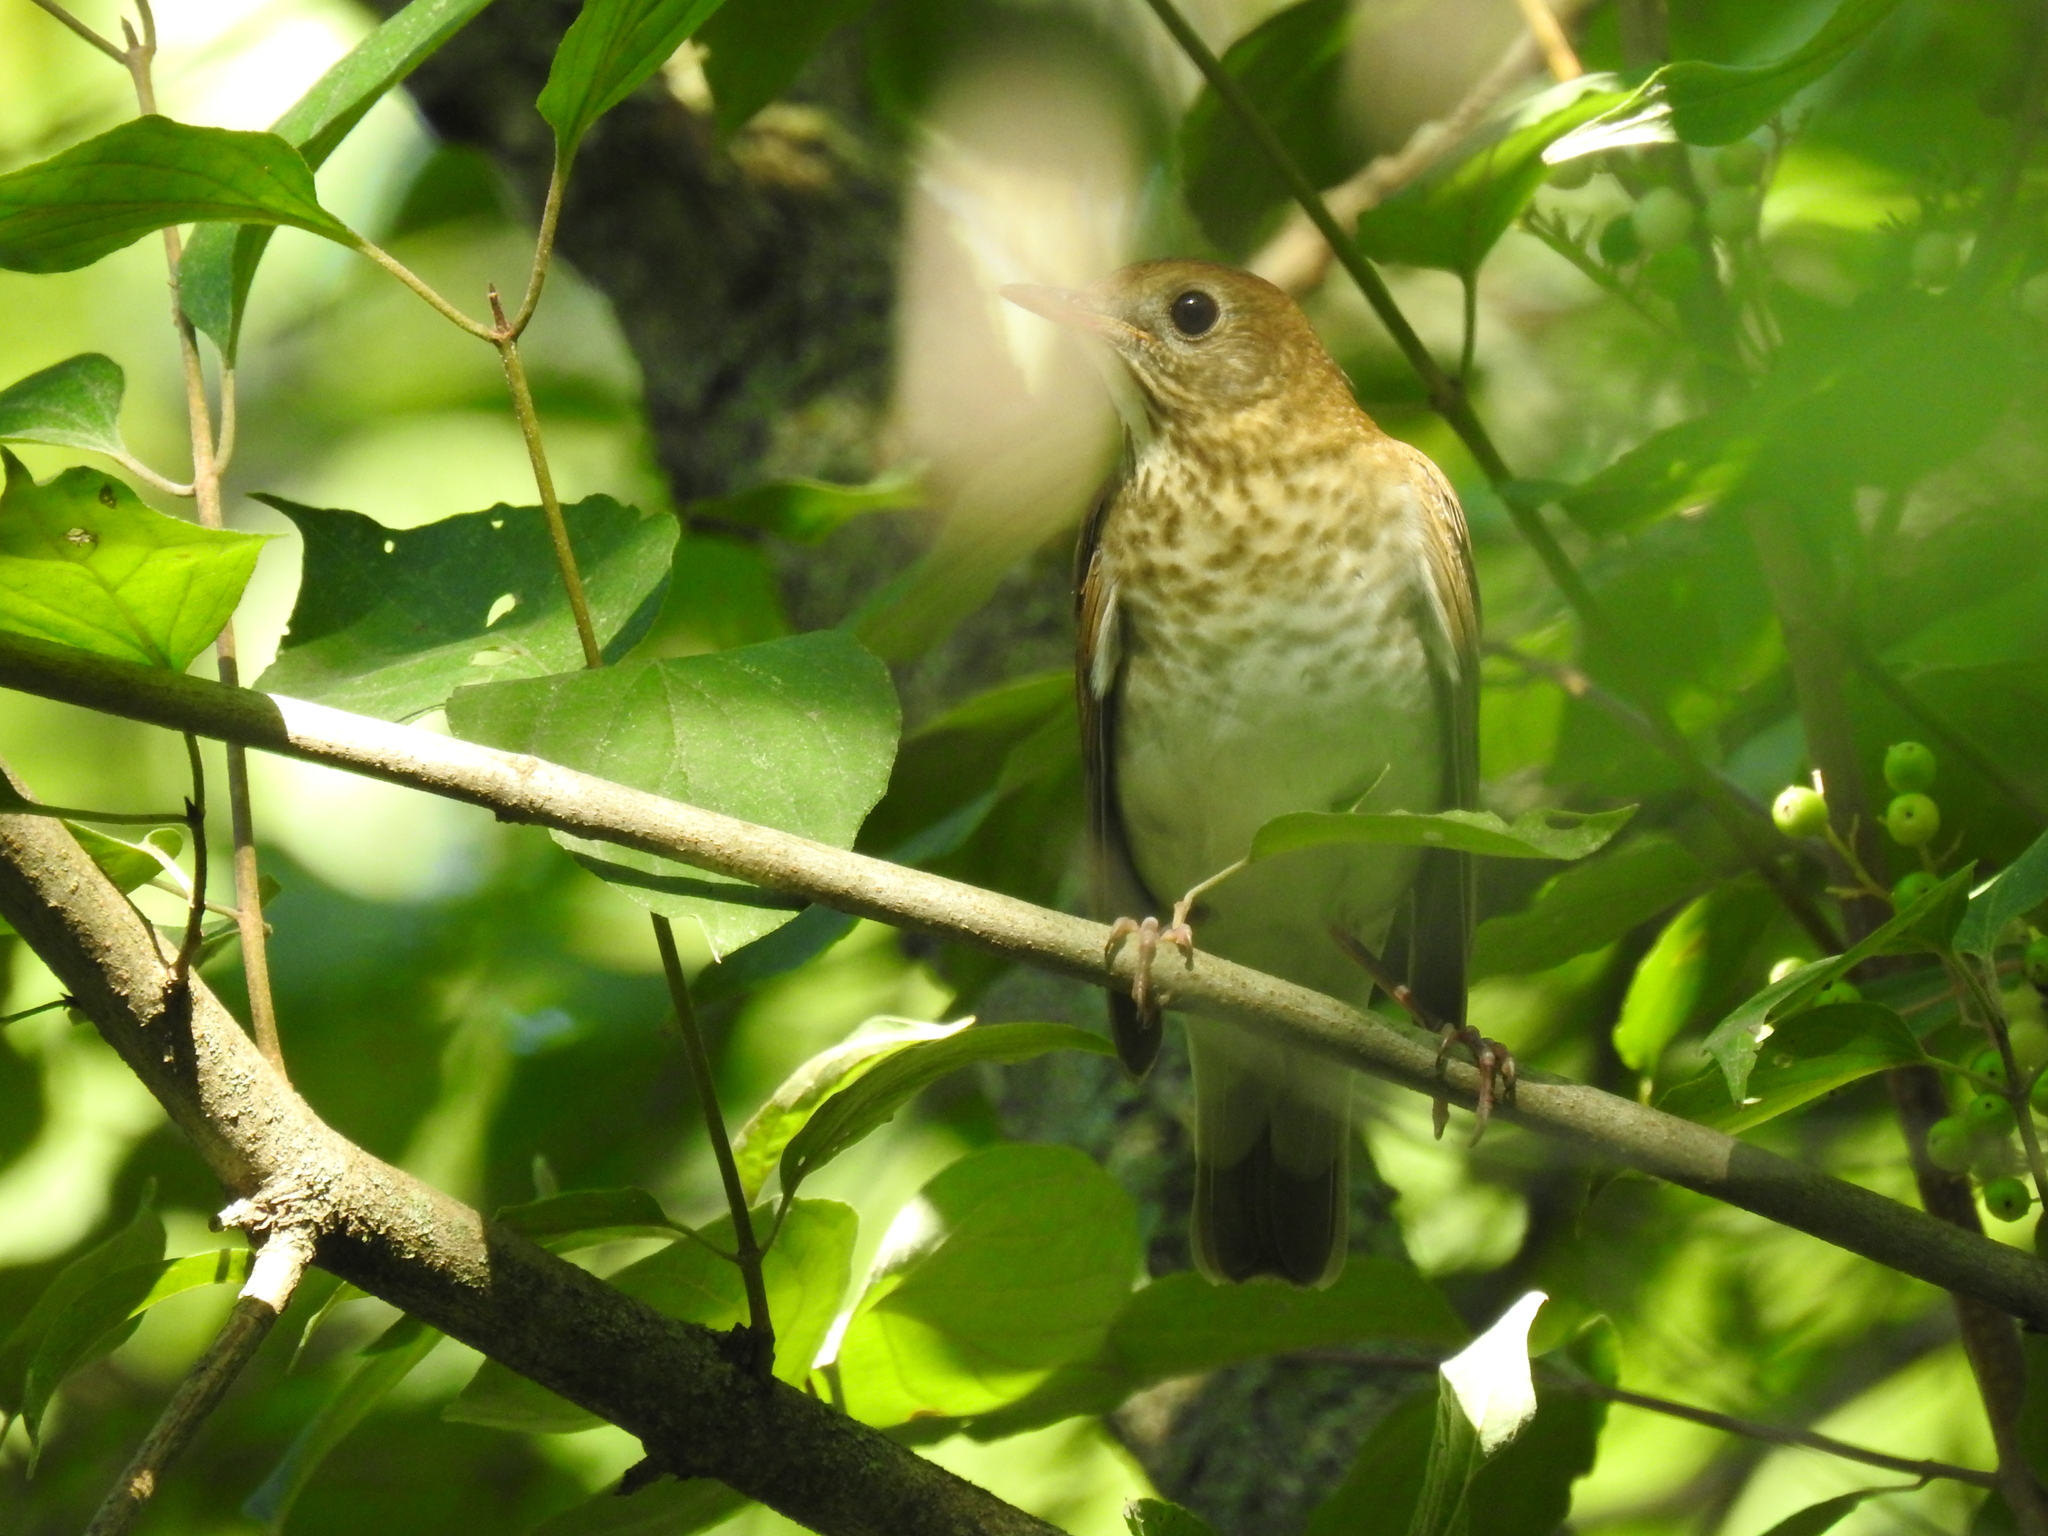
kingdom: Animalia
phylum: Chordata
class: Aves
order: Passeriformes
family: Turdidae
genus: Catharus
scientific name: Catharus fuscescens
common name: Veery
